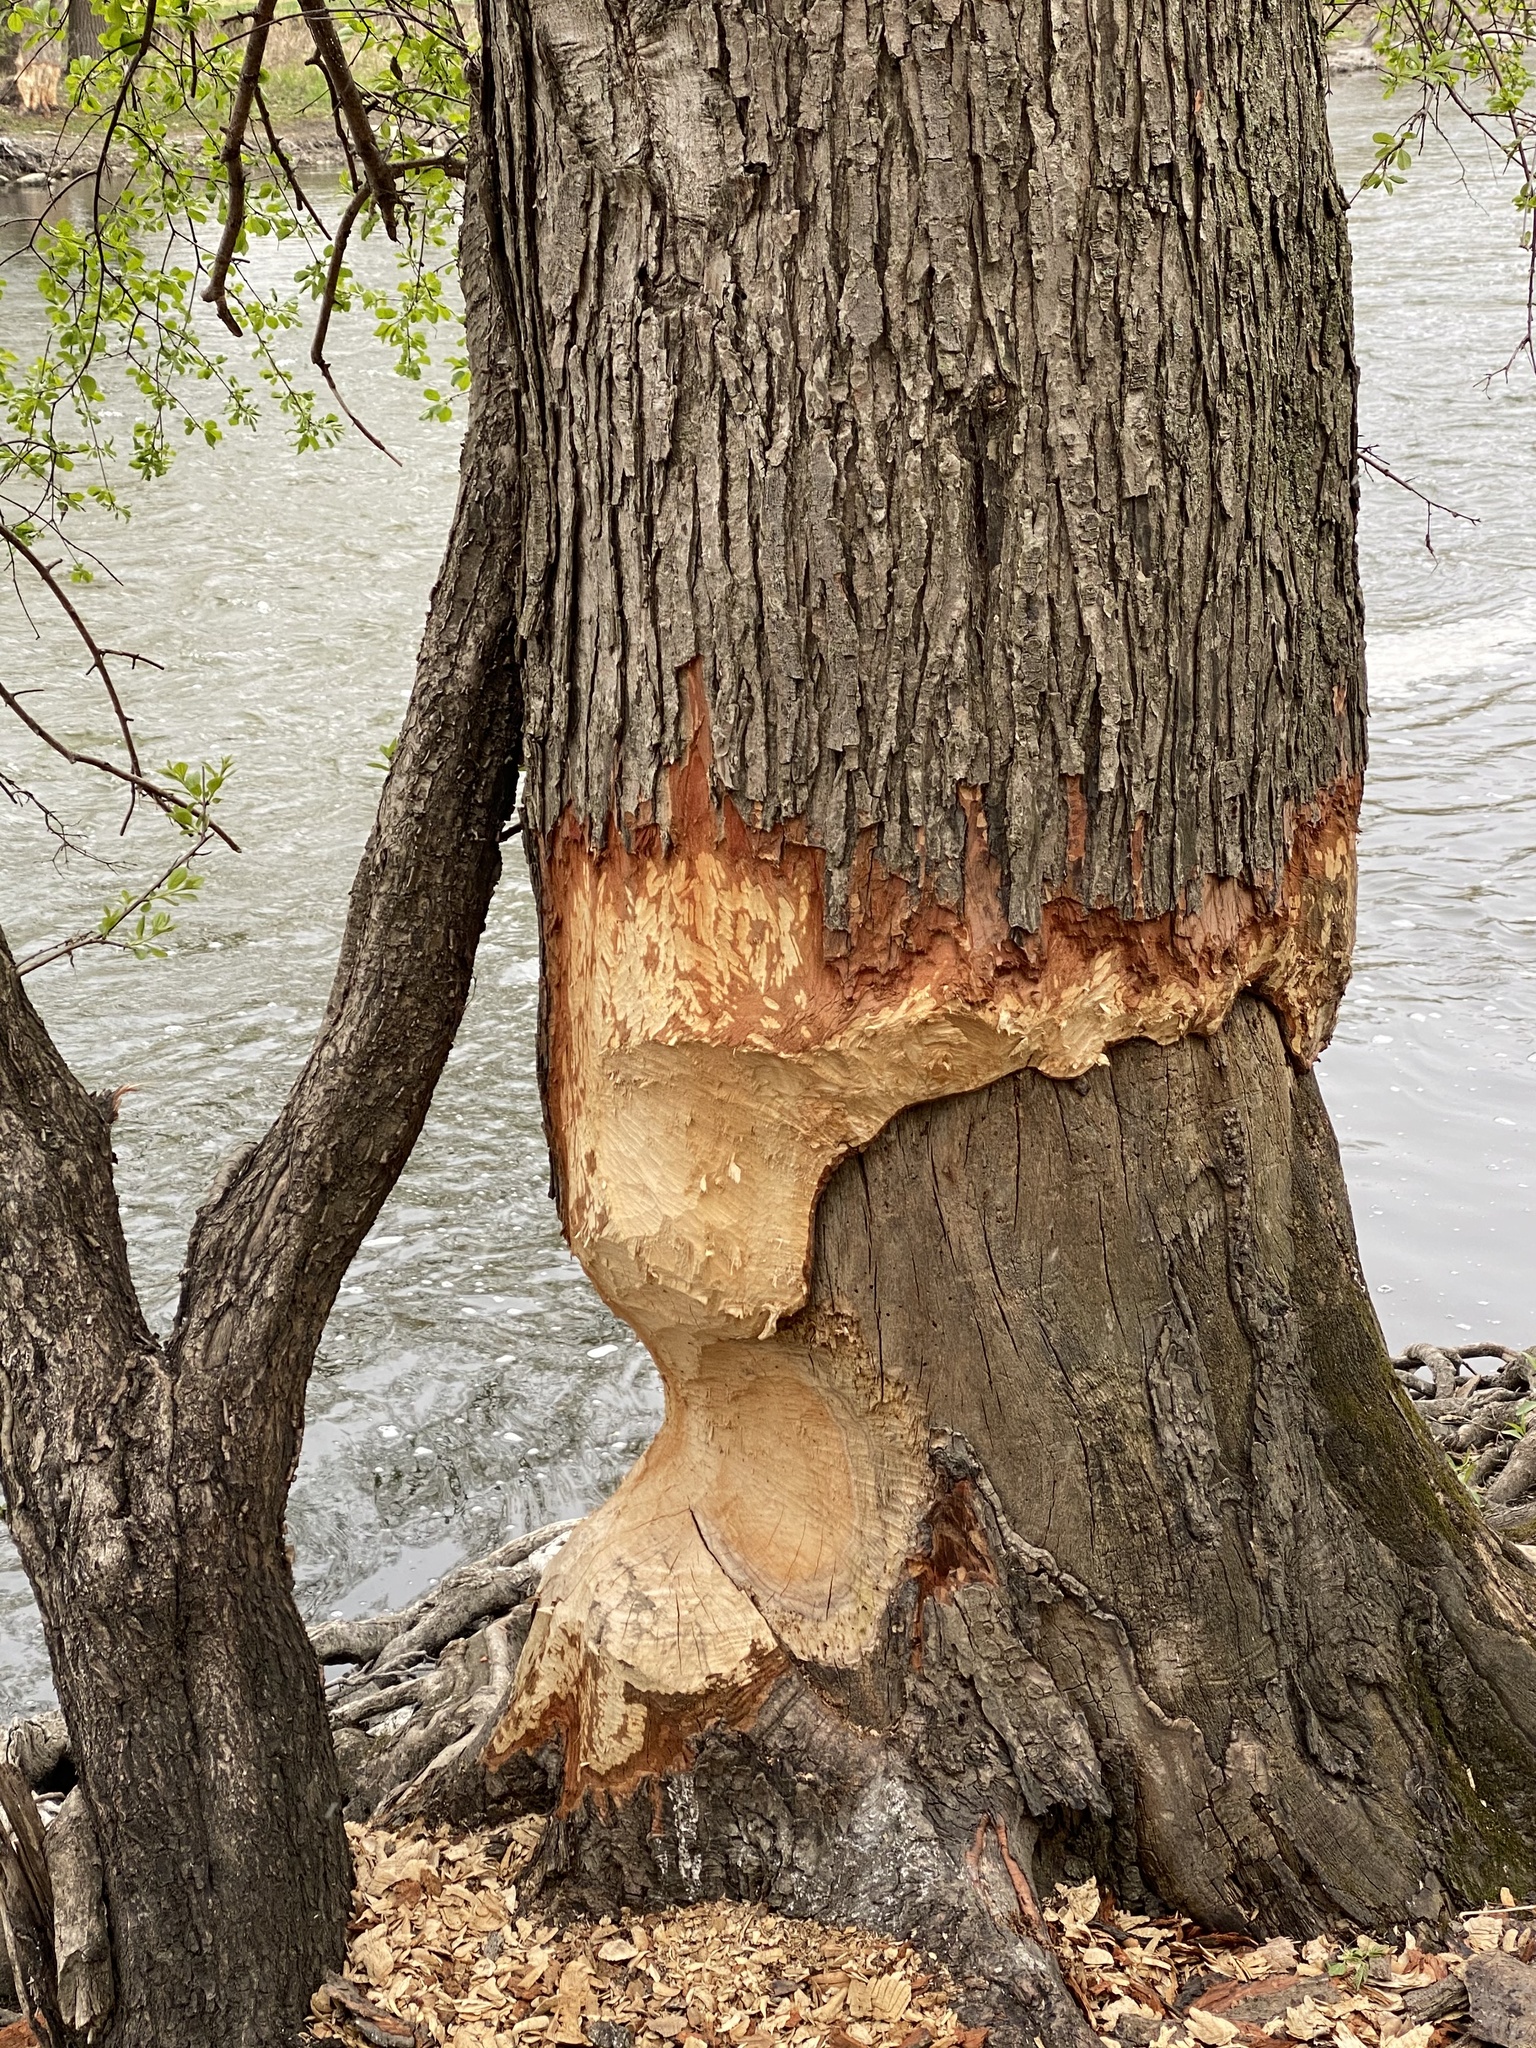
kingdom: Animalia
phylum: Chordata
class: Mammalia
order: Rodentia
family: Castoridae
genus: Castor
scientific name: Castor canadensis
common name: American beaver
